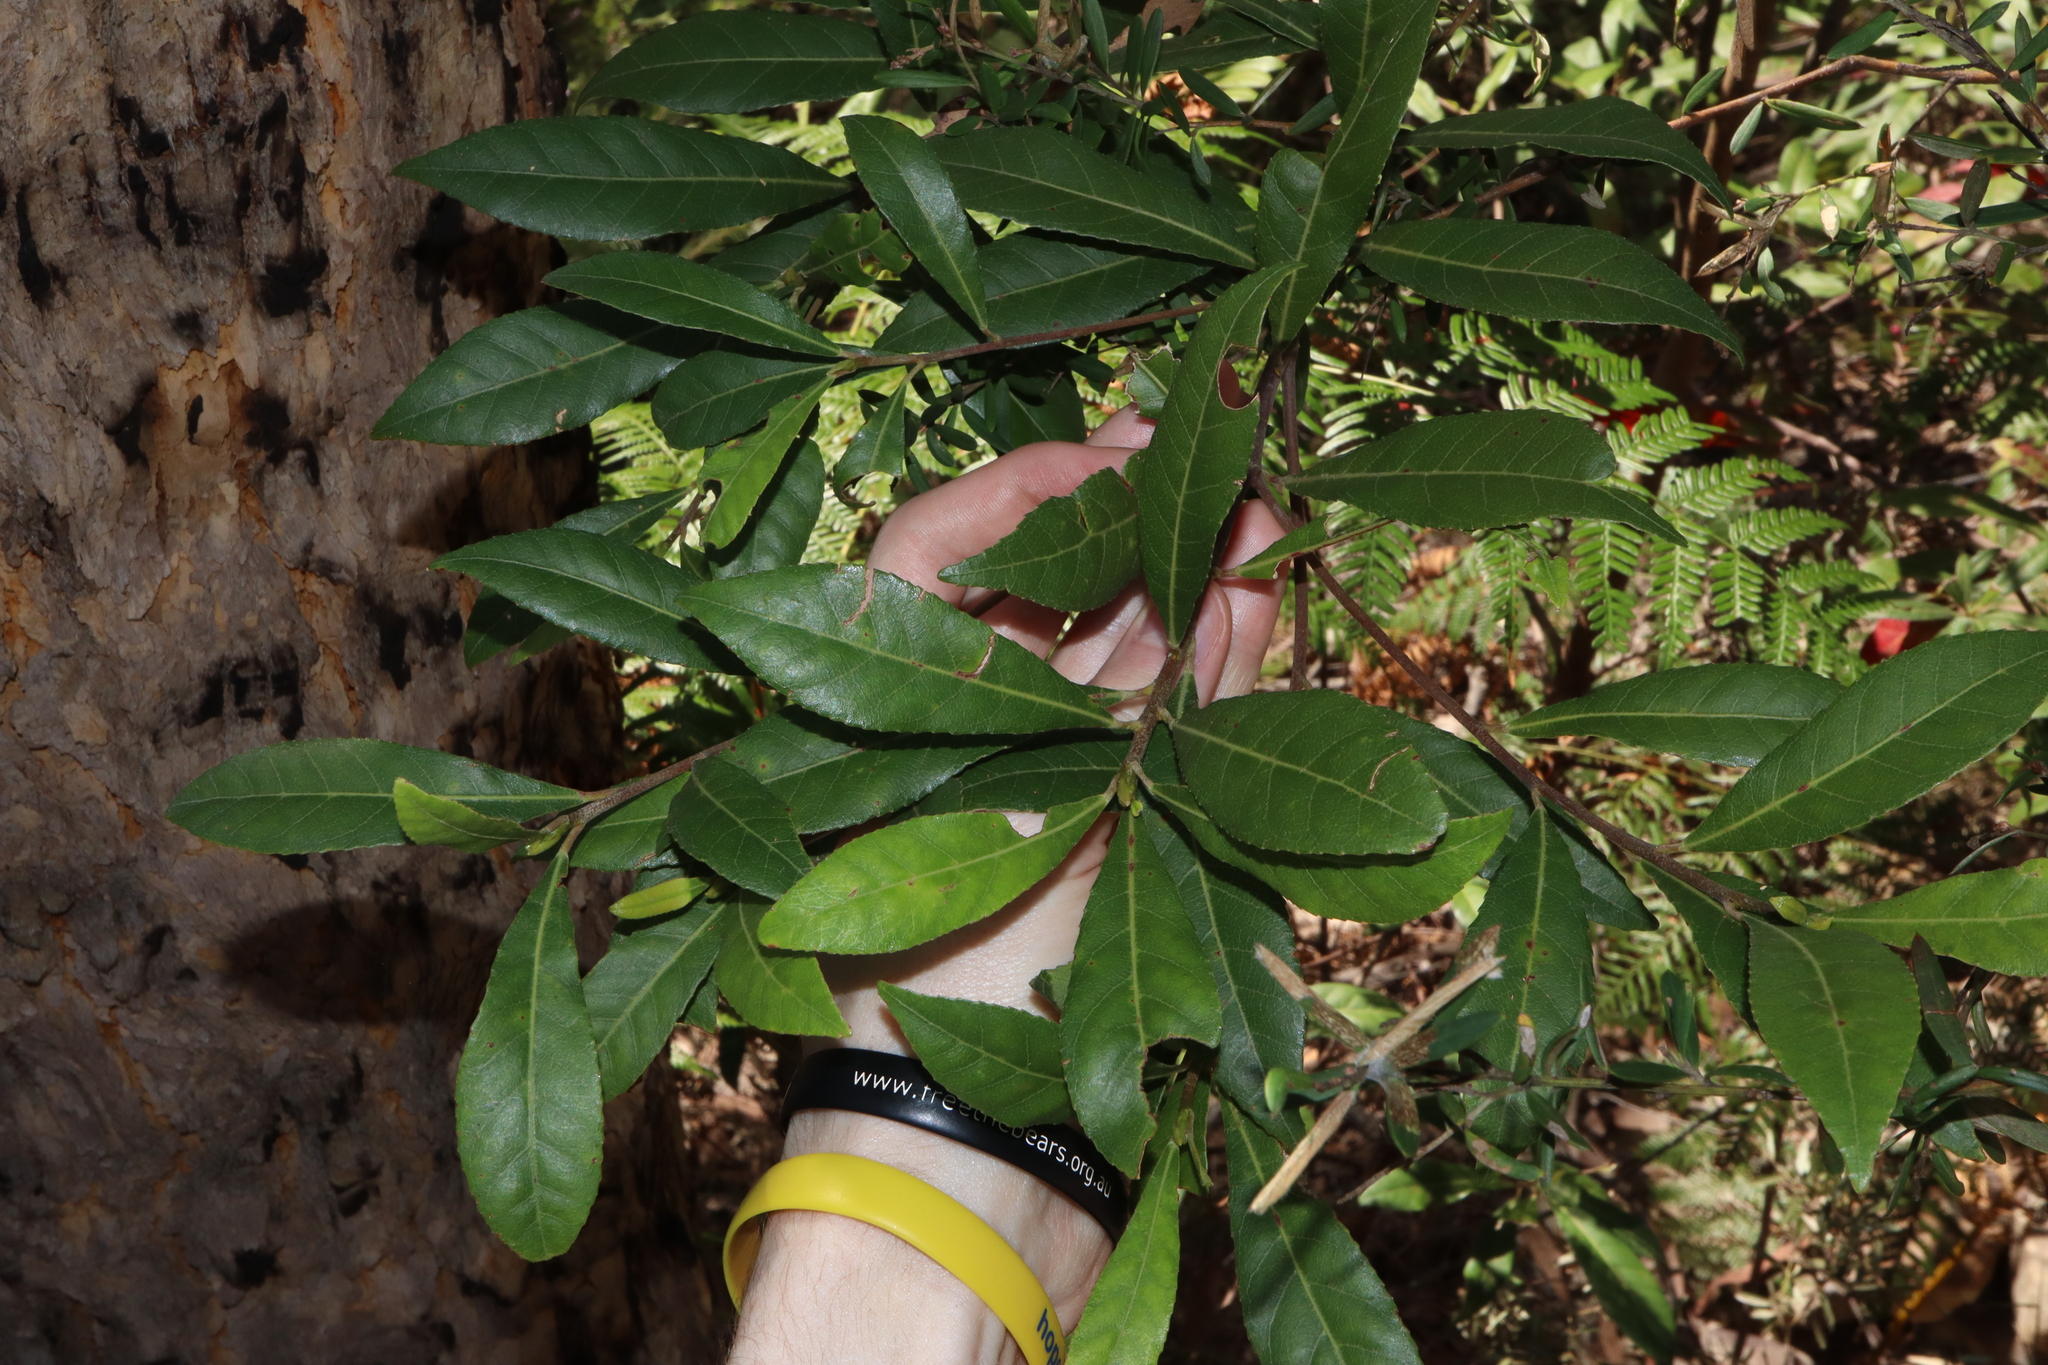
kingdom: Plantae
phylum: Tracheophyta
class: Magnoliopsida
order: Oxalidales
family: Elaeocarpaceae
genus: Elaeocarpus
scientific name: Elaeocarpus reticulatus
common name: Ash quandong
